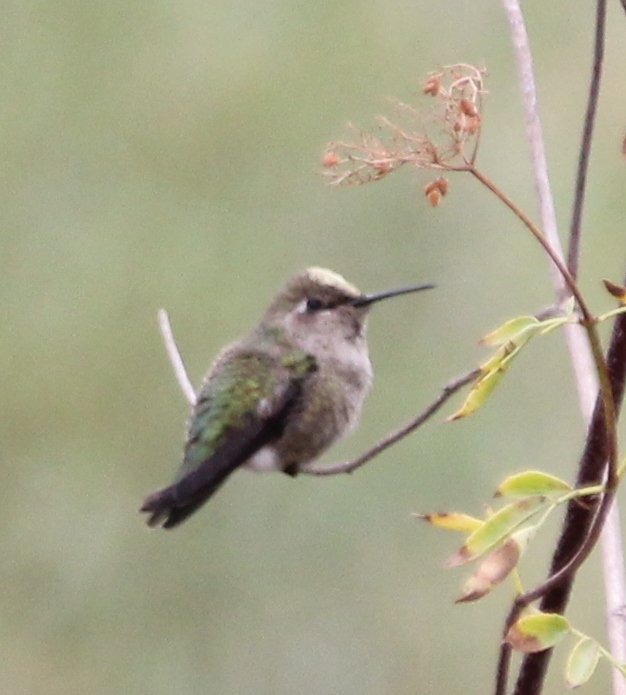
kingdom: Animalia
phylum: Chordata
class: Aves
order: Apodiformes
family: Trochilidae
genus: Calypte
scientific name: Calypte anna
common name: Anna's hummingbird
